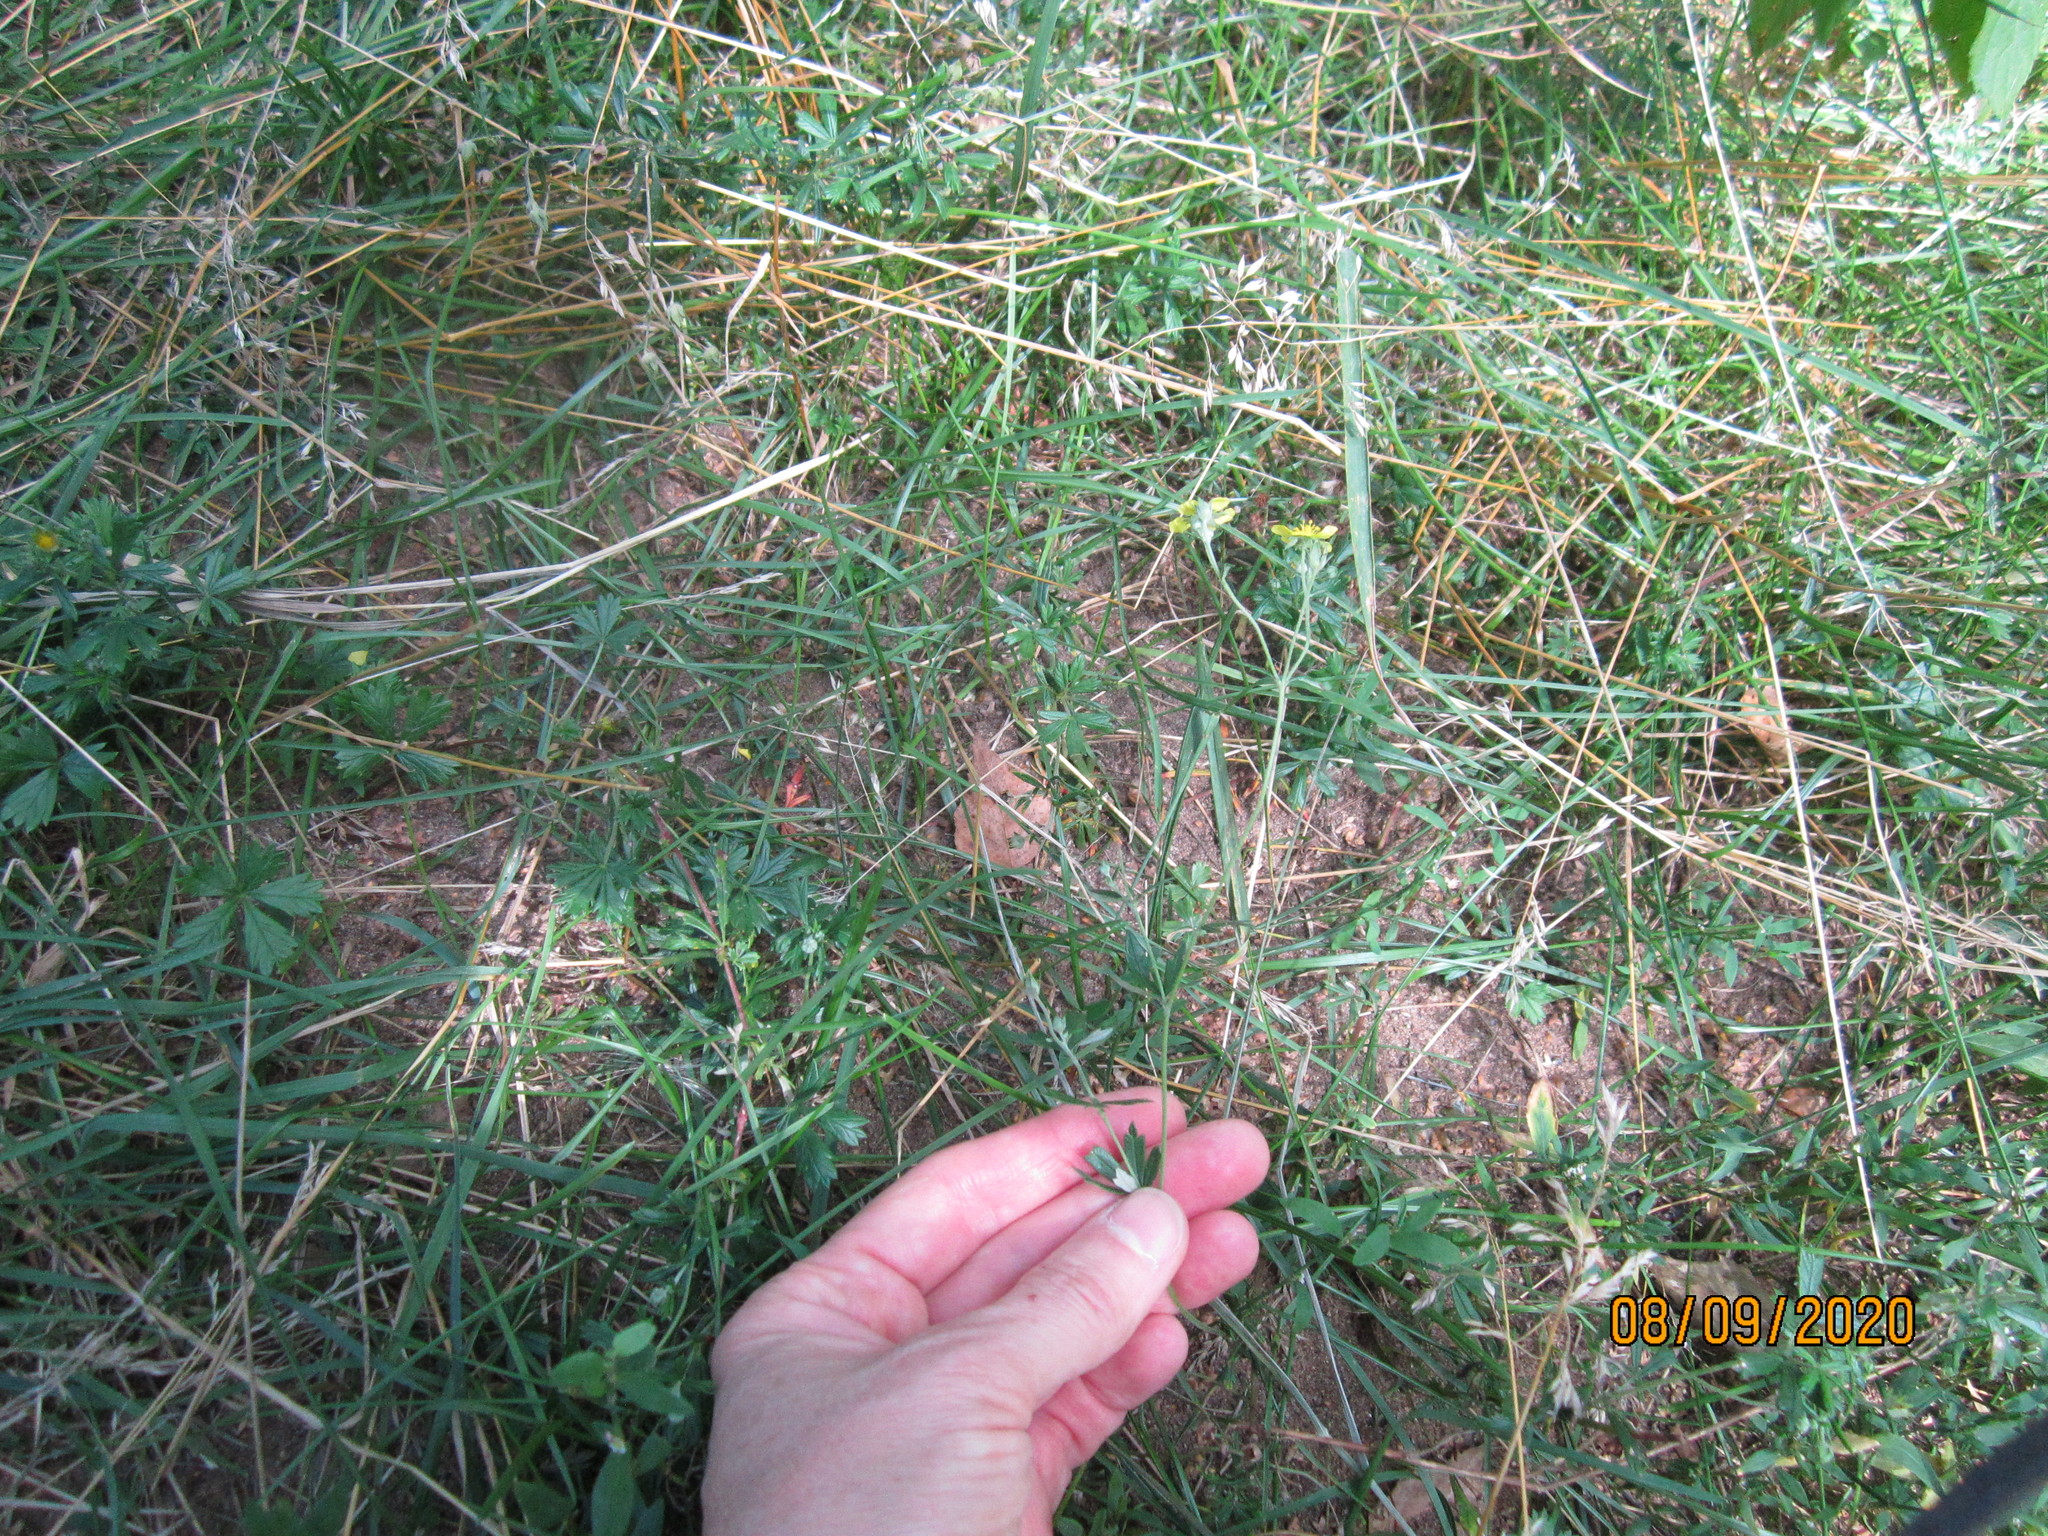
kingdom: Plantae
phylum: Tracheophyta
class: Magnoliopsida
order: Rosales
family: Rosaceae
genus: Potentilla
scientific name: Potentilla argentea
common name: Hoary cinquefoil
